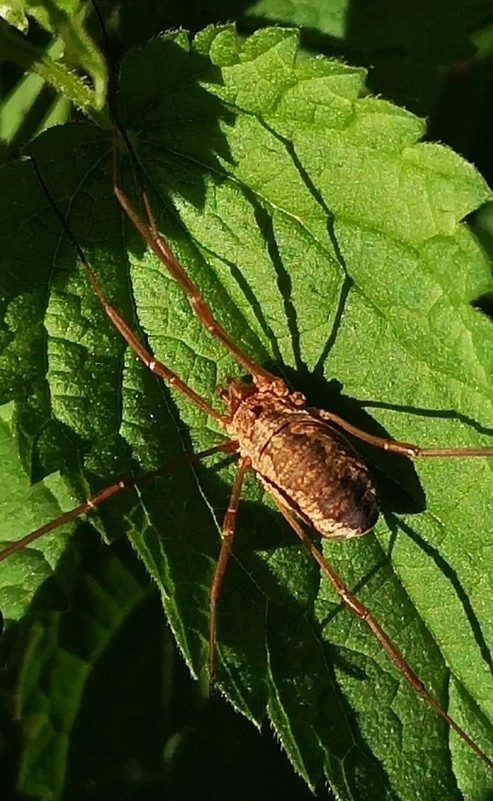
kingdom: Animalia
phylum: Arthropoda
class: Arachnida
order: Opiliones
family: Phalangiidae
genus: Phalangium
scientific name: Phalangium opilio
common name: Daddy longleg
